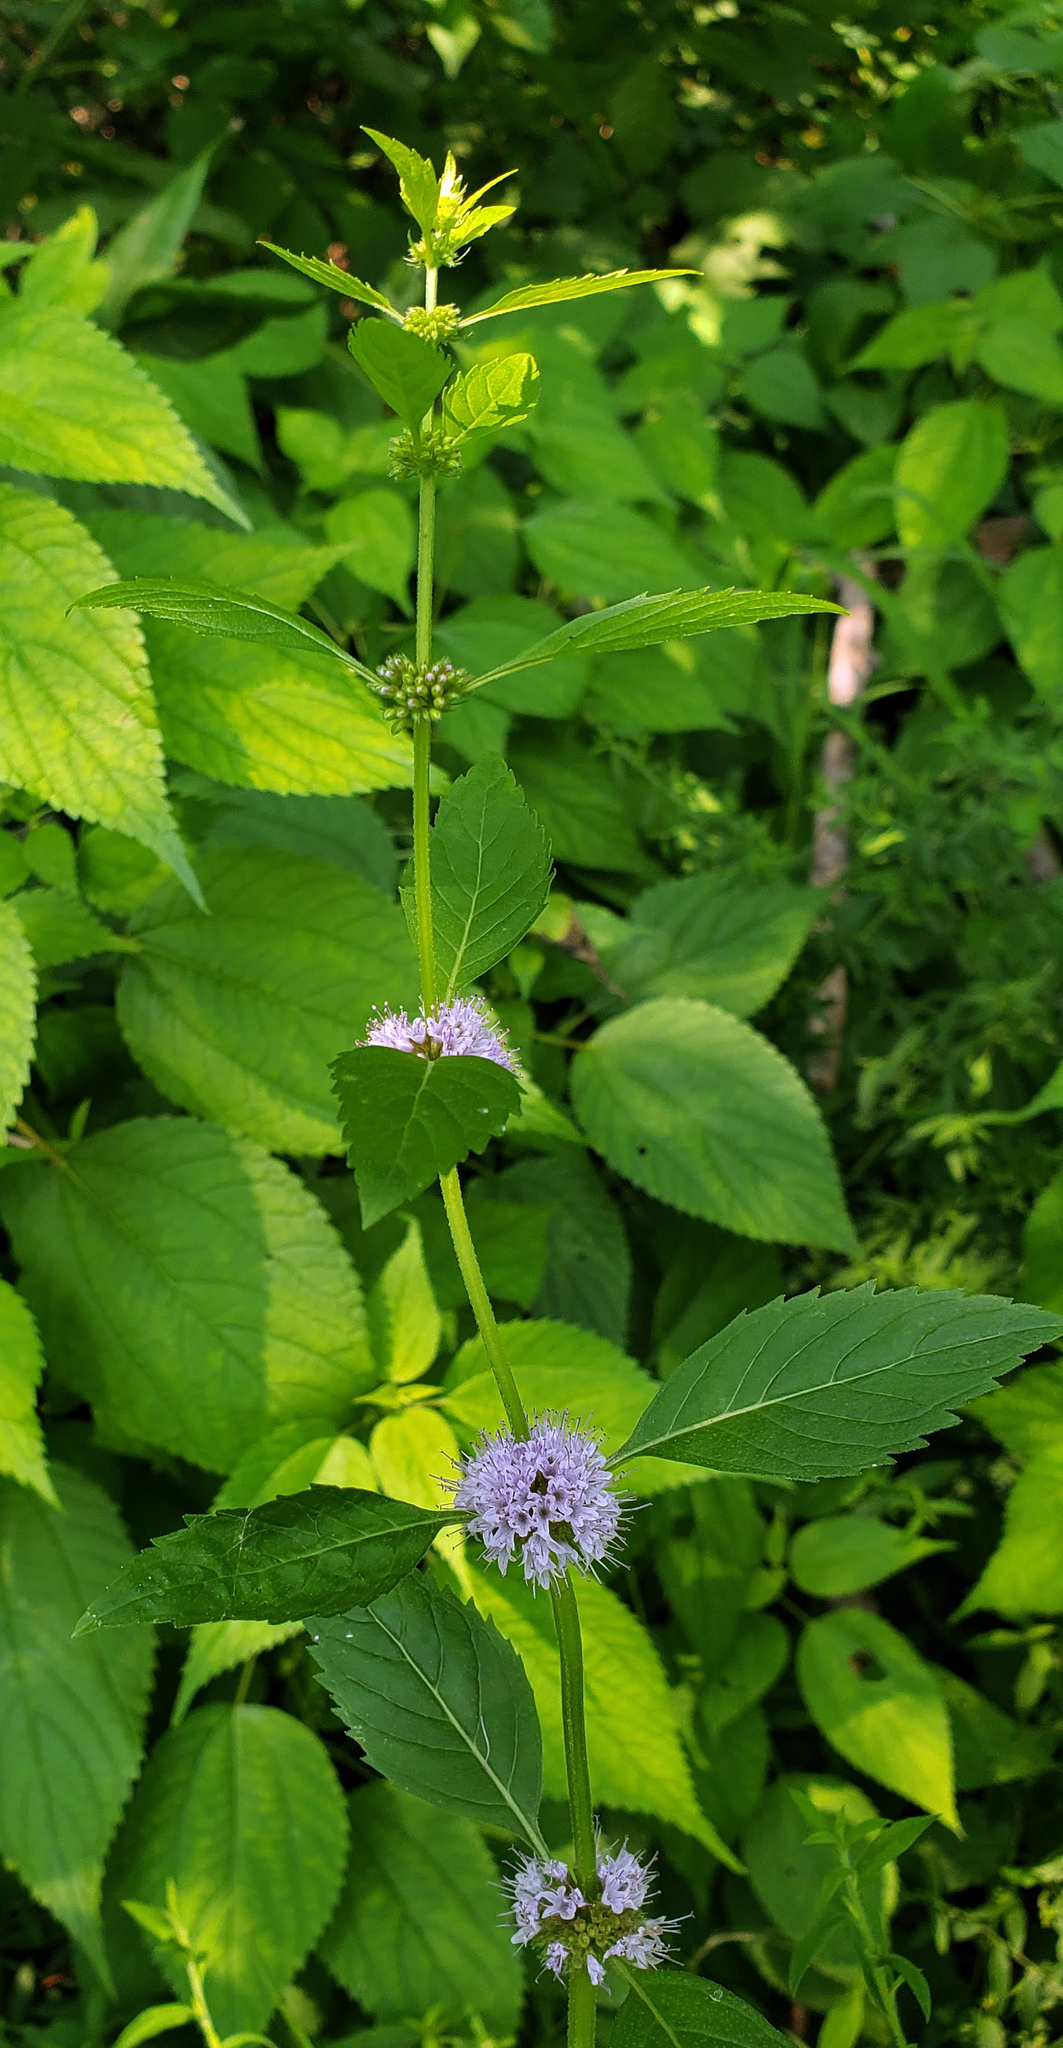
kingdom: Plantae
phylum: Tracheophyta
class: Magnoliopsida
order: Lamiales
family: Lamiaceae
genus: Mentha
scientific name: Mentha canadensis
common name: American corn mint
